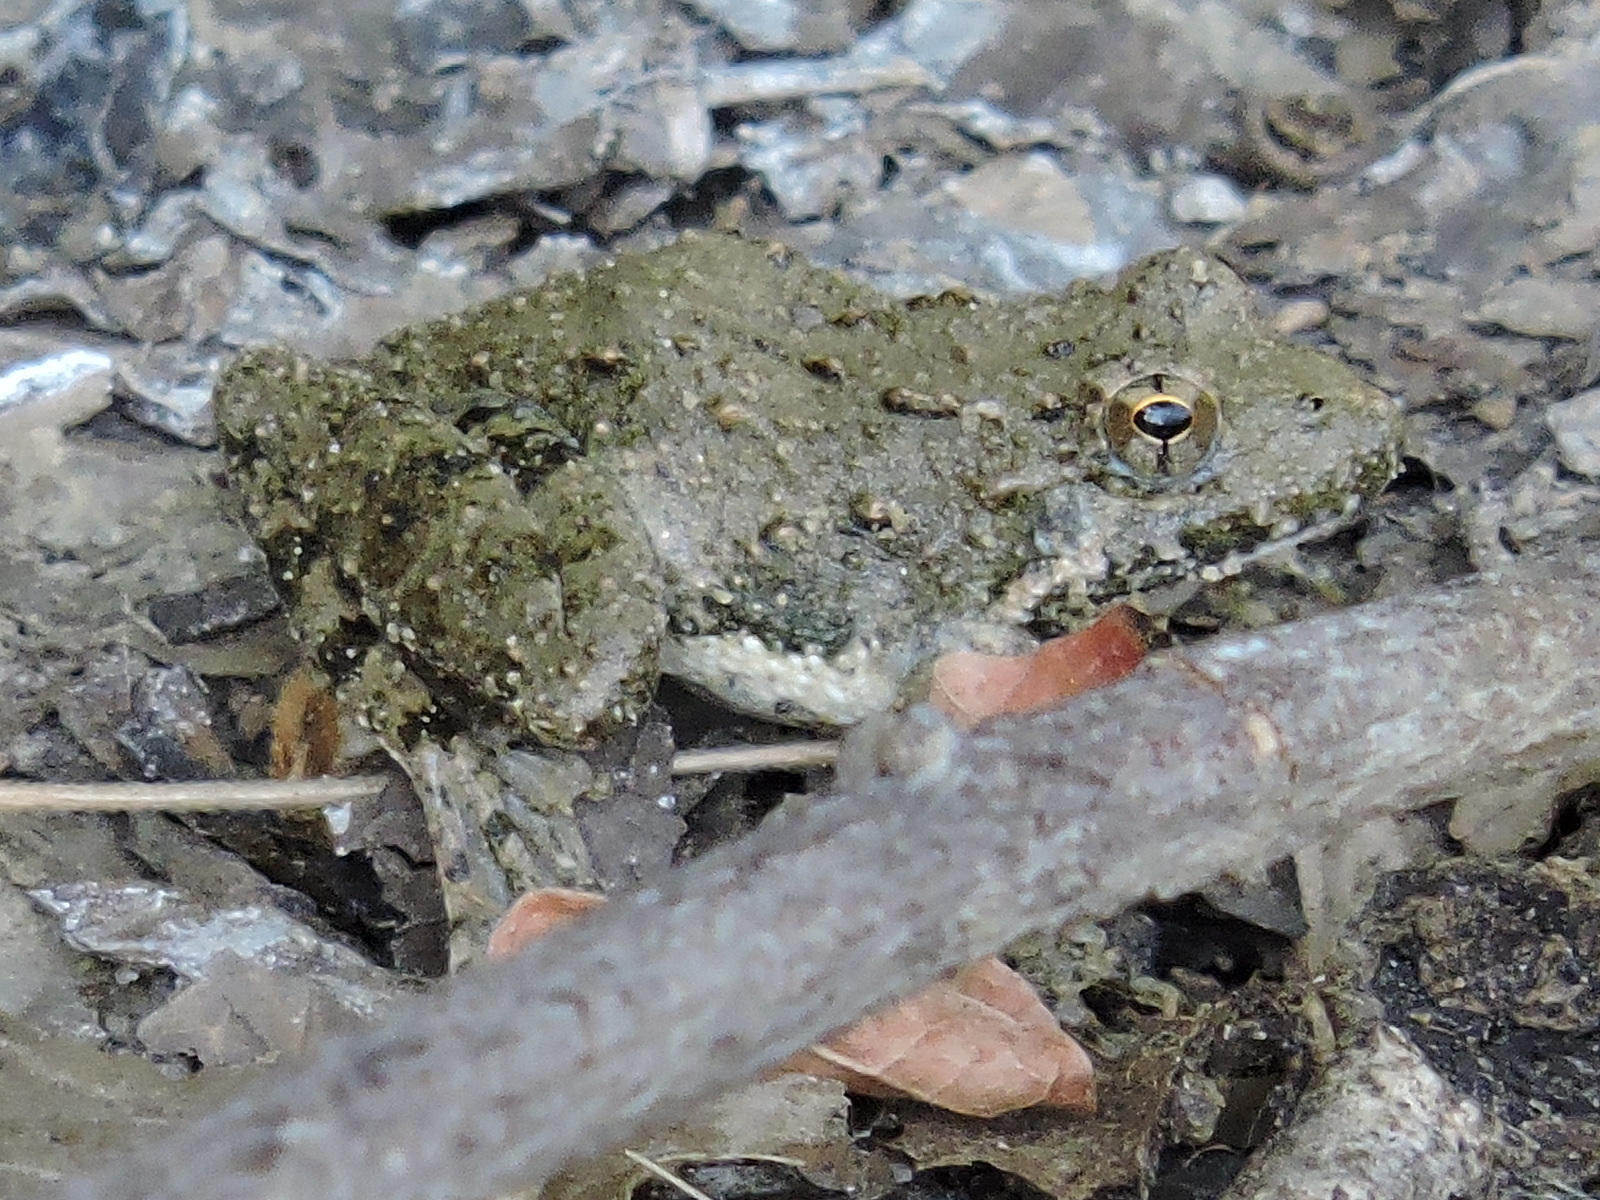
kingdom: Animalia
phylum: Chordata
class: Amphibia
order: Anura
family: Hylidae
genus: Acris
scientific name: Acris blanchardi
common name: Blanchard's cricket frog
